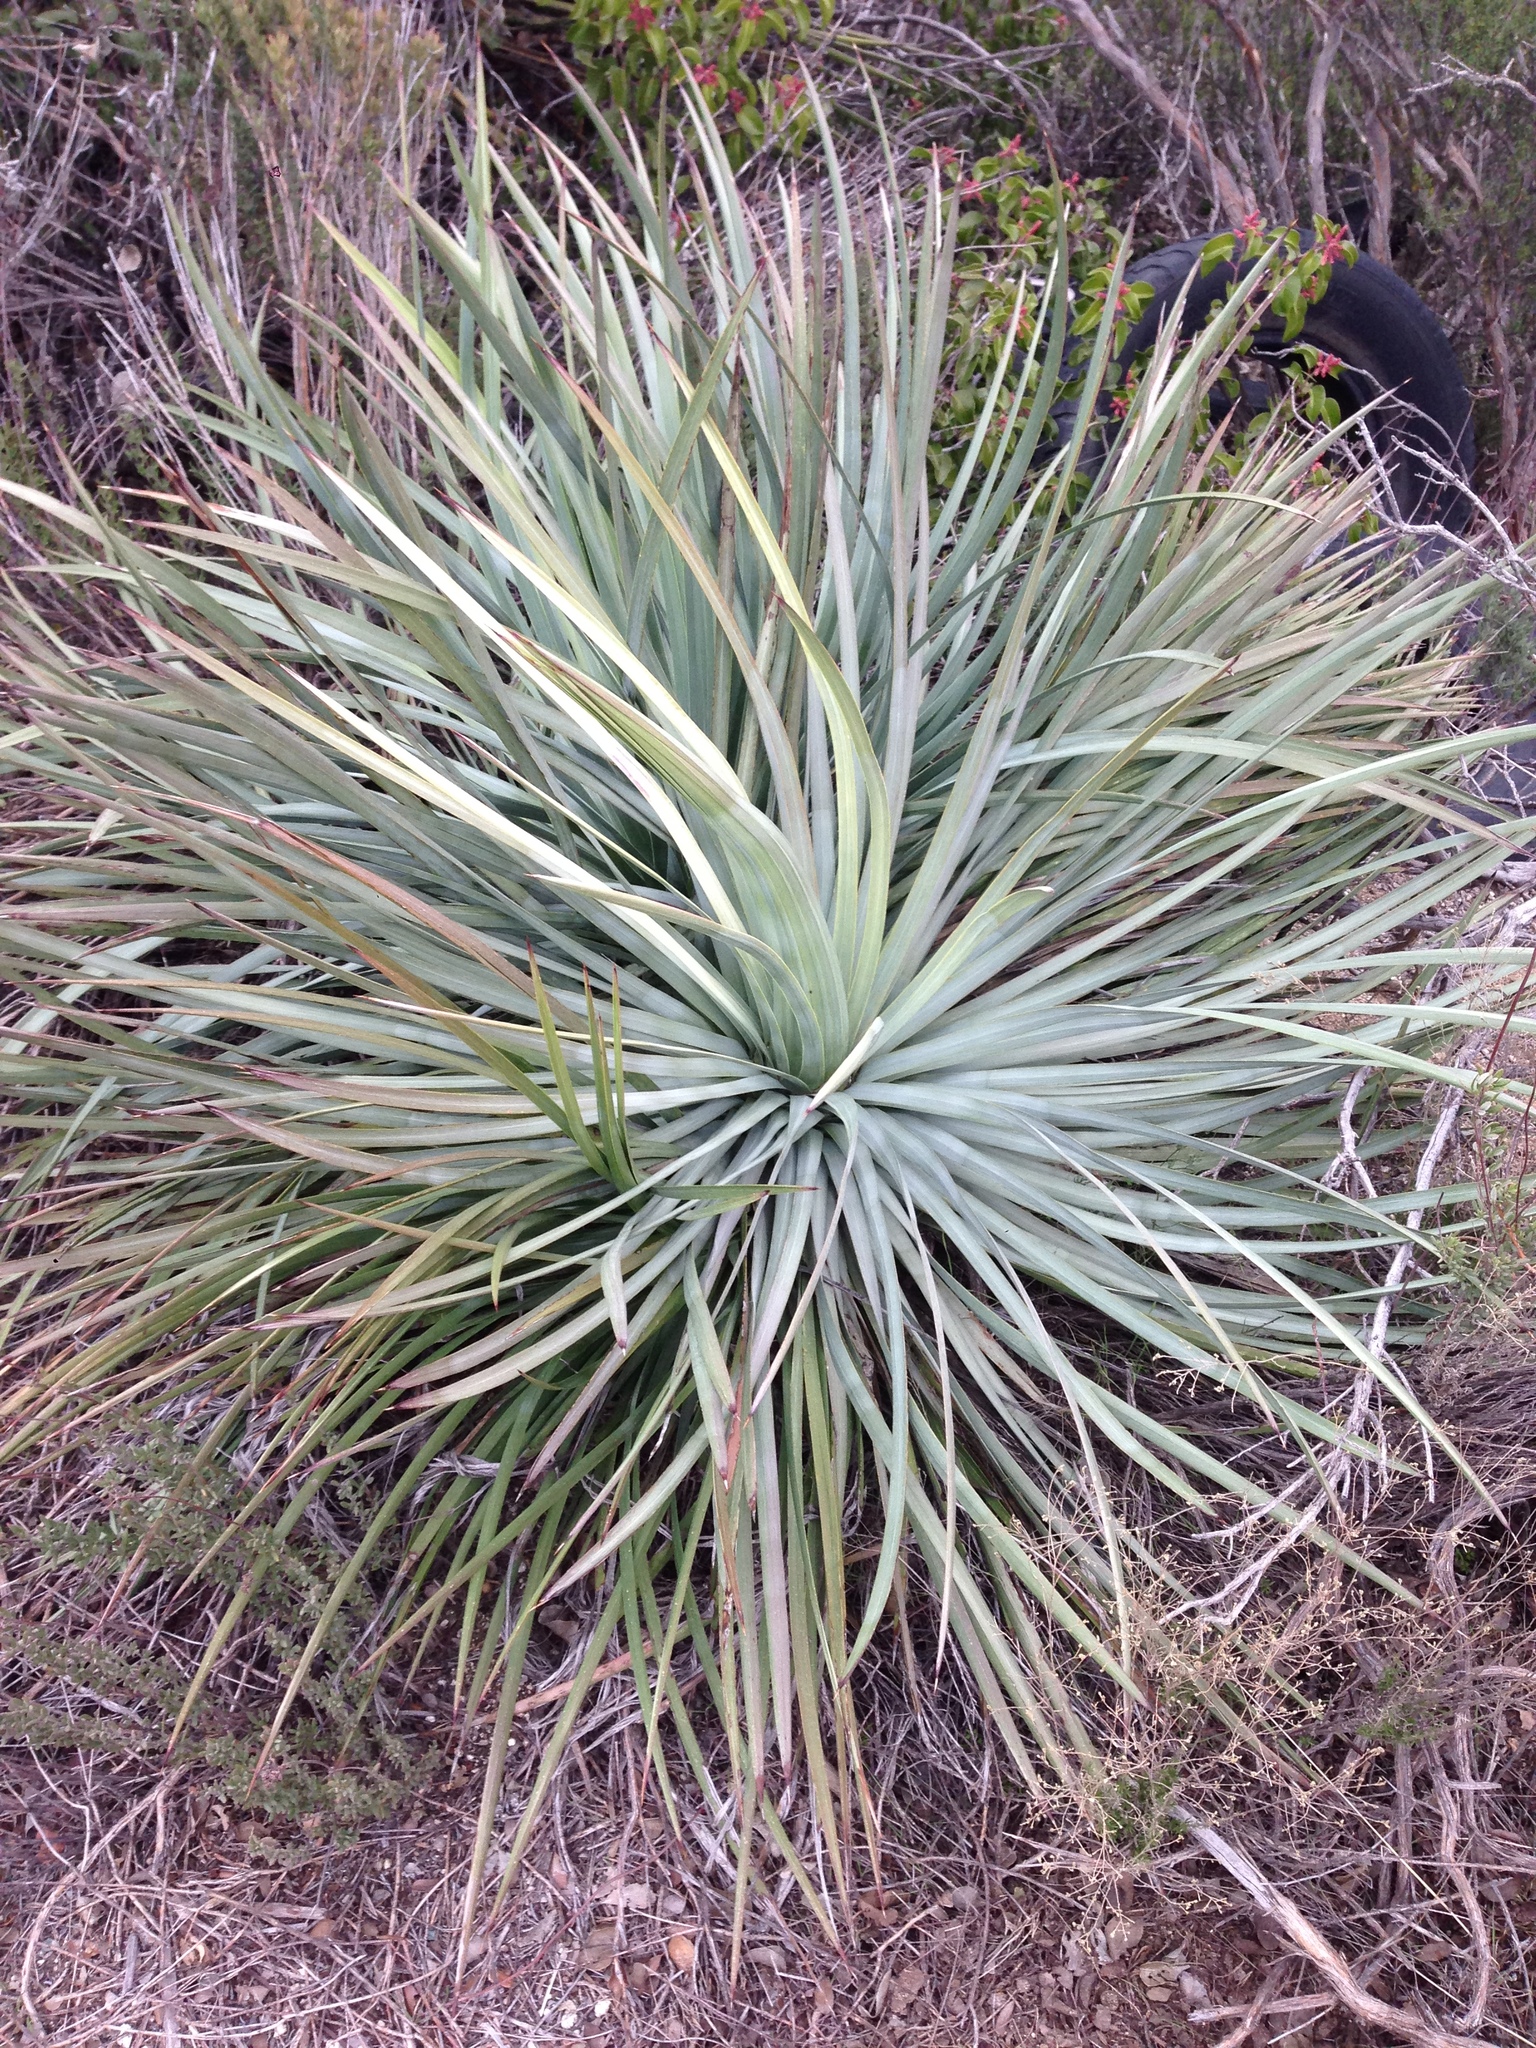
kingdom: Plantae
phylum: Tracheophyta
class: Liliopsida
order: Asparagales
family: Asparagaceae
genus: Hesperoyucca
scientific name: Hesperoyucca whipplei
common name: Our lord's-candle
